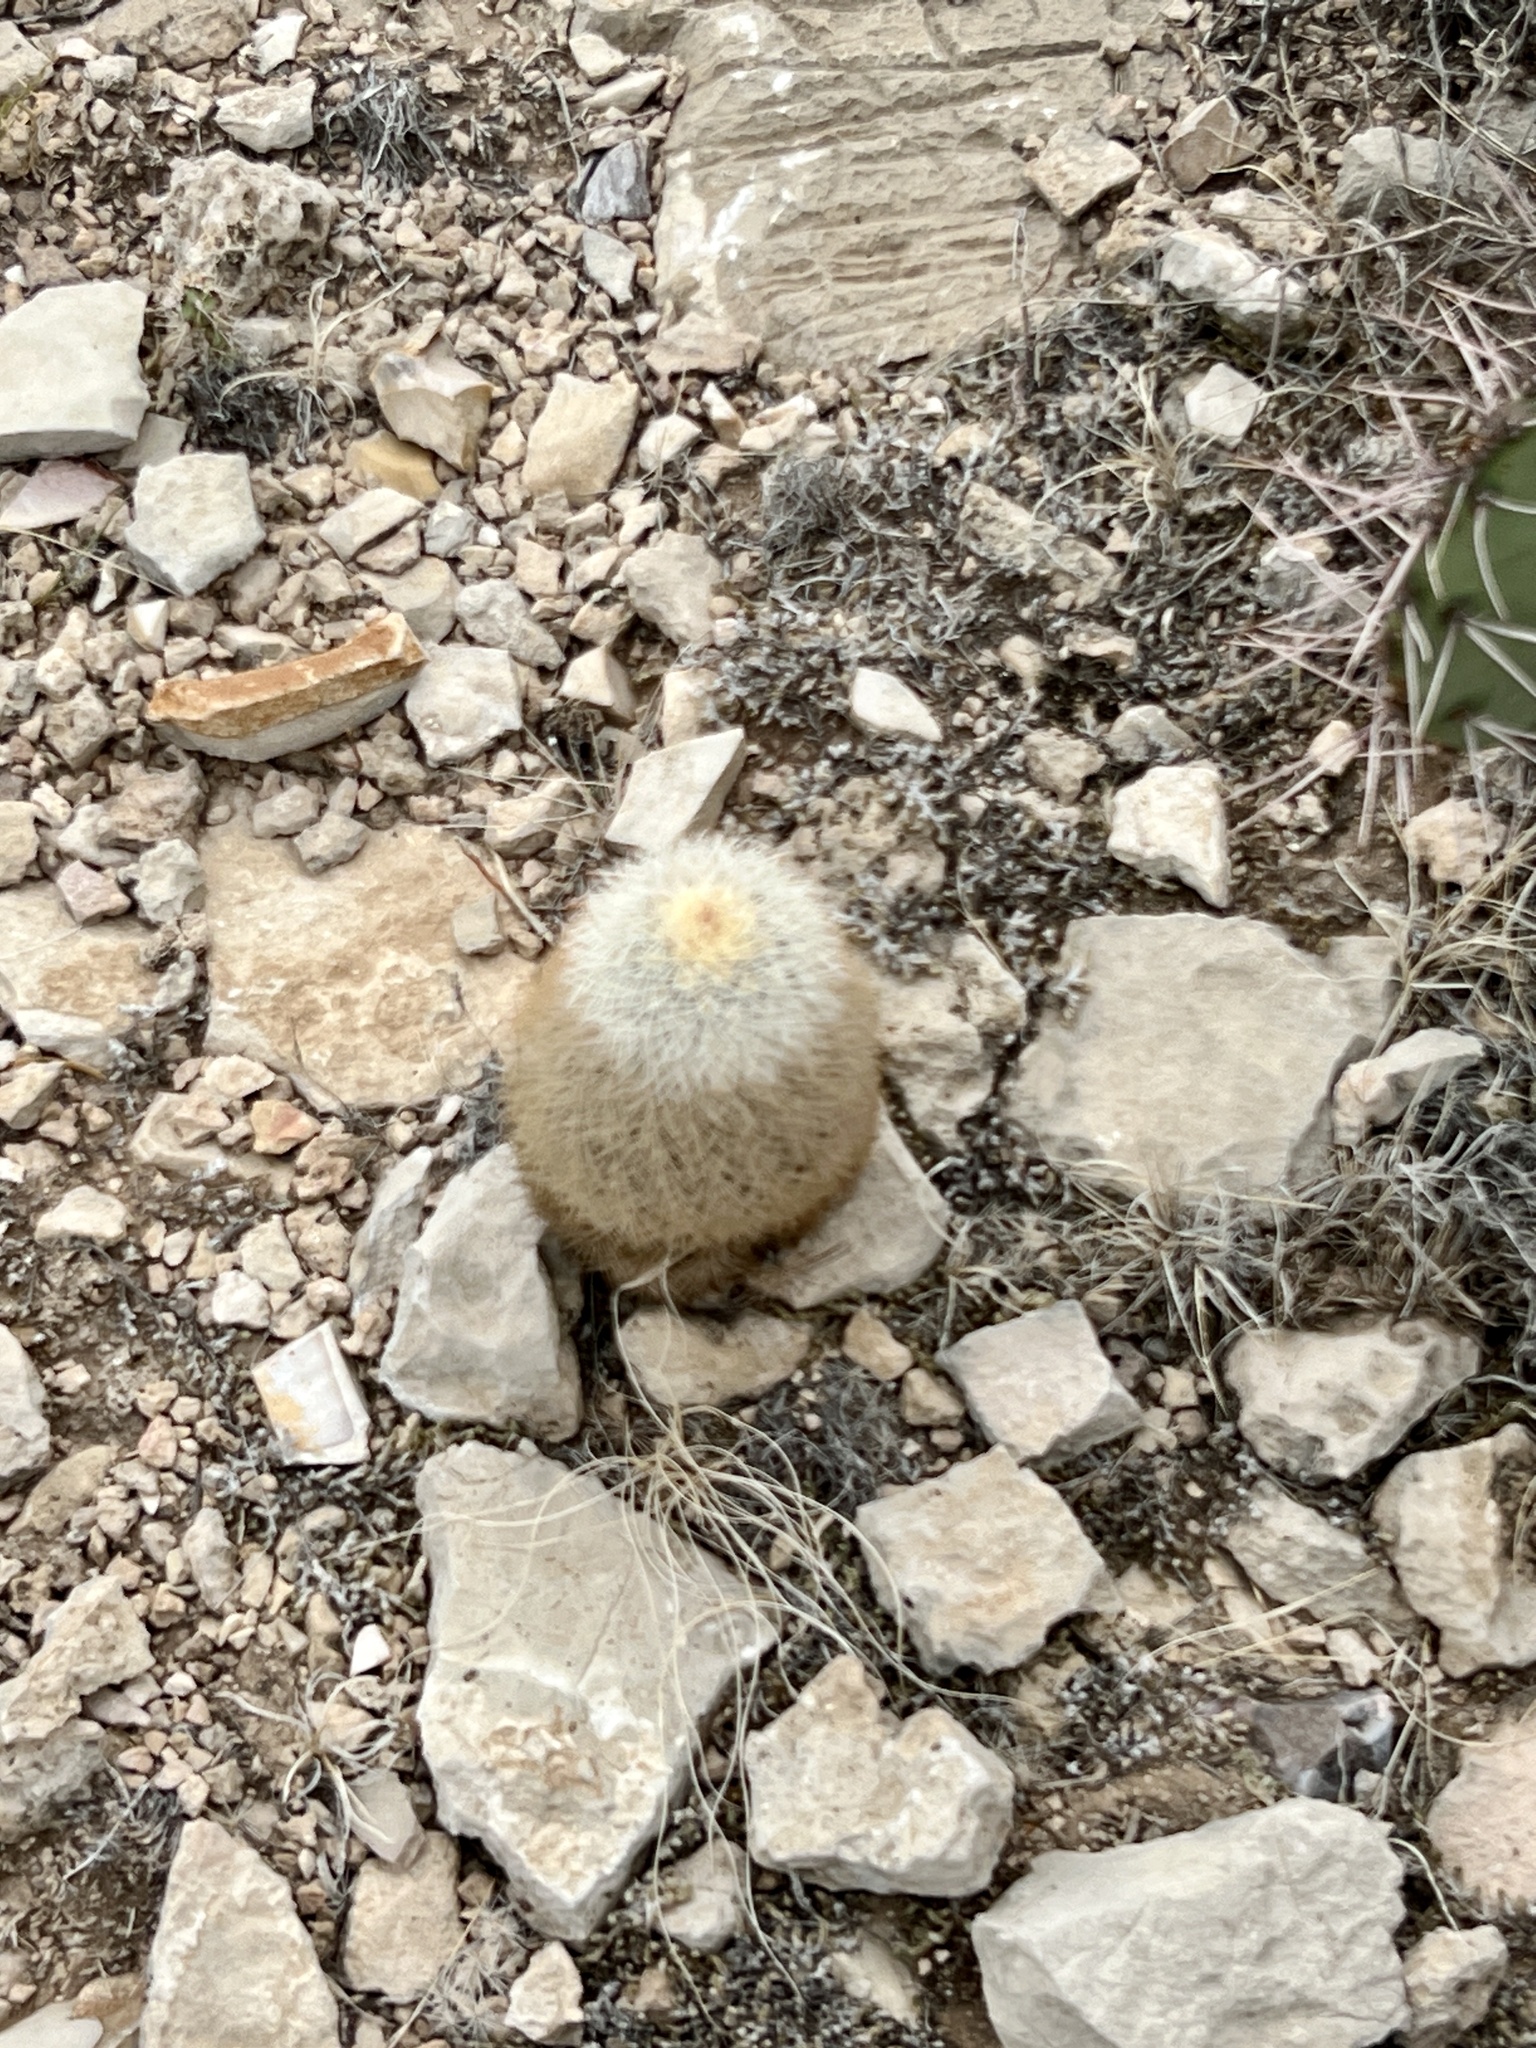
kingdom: Plantae
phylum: Tracheophyta
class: Magnoliopsida
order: Caryophyllales
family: Cactaceae
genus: Echinocereus
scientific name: Echinocereus dasyacanthus
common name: Spiny hedgehog cactus
